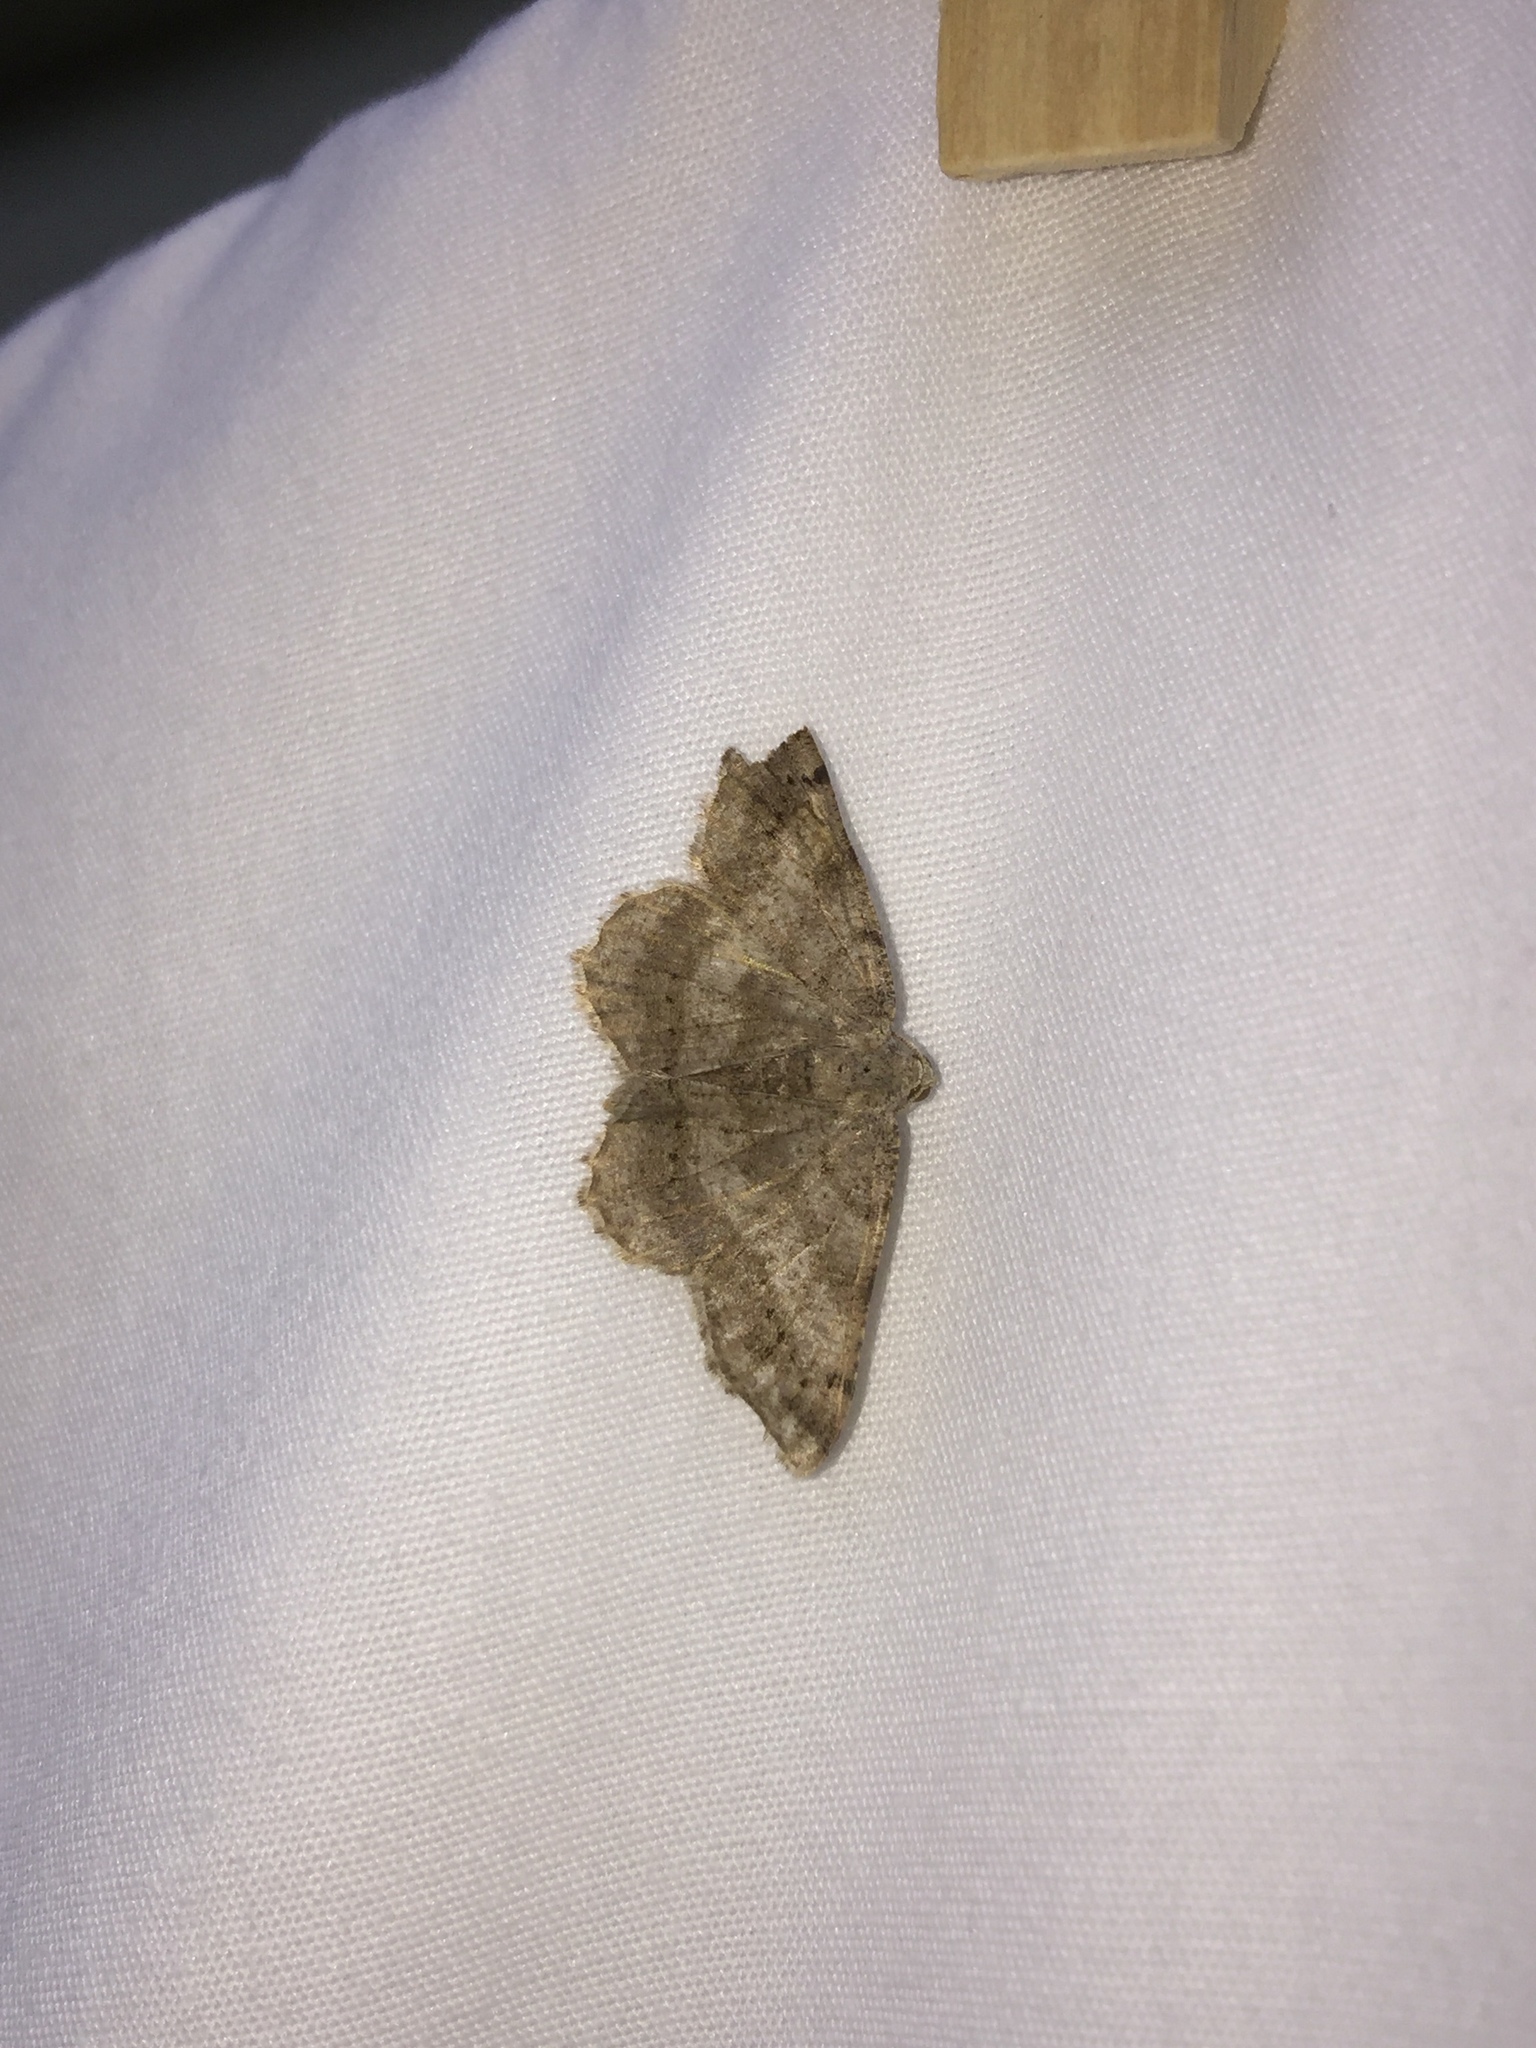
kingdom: Animalia
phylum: Arthropoda
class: Insecta
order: Lepidoptera
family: Geometridae
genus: Digrammia
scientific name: Digrammia ocellinata
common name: Faint-spotted angle
